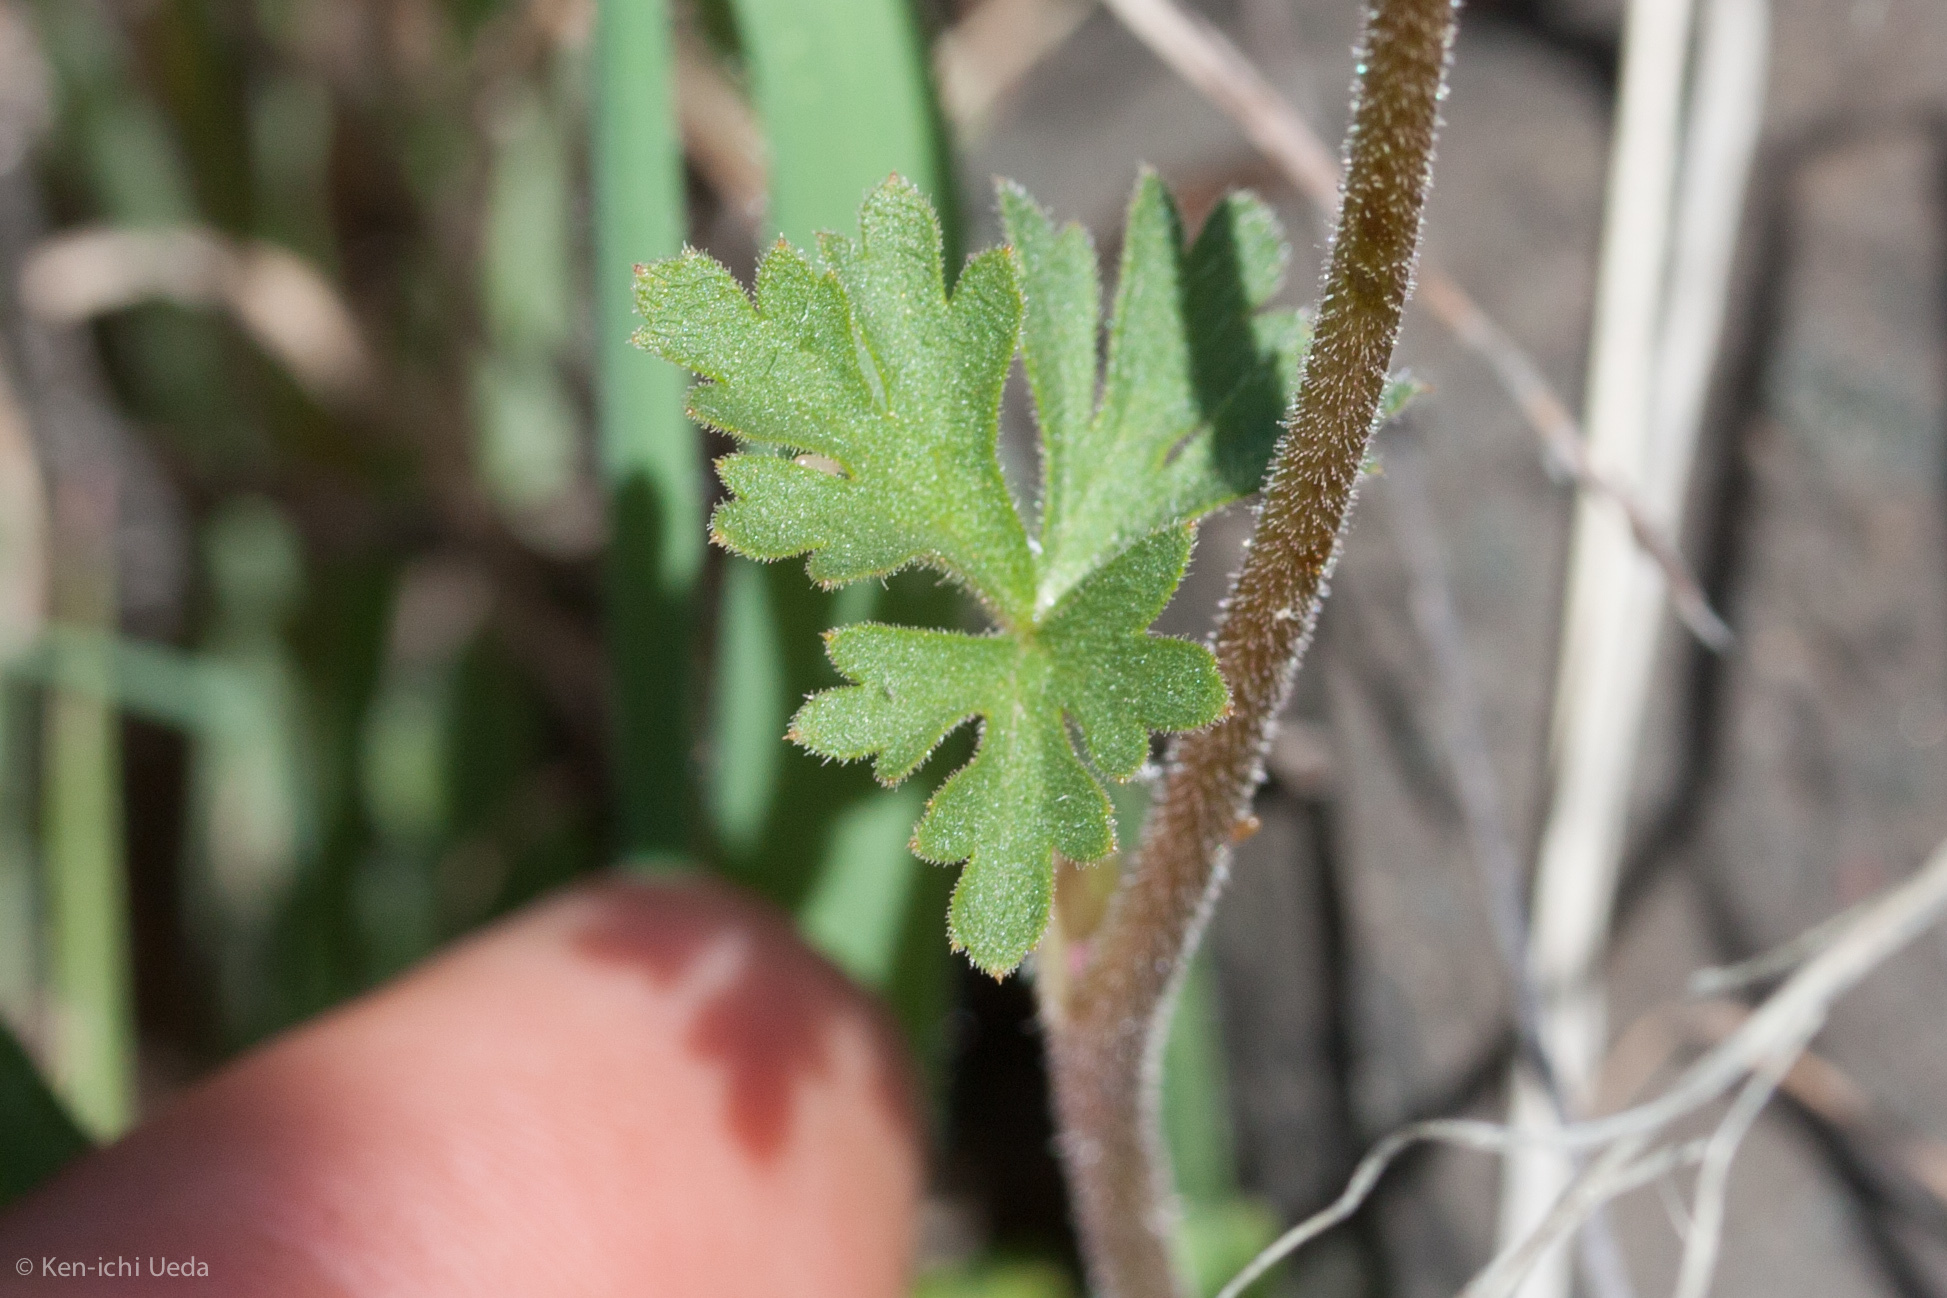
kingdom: Plantae
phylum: Tracheophyta
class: Magnoliopsida
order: Saxifragales
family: Saxifragaceae
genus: Lithophragma
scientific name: Lithophragma trifoliatum
